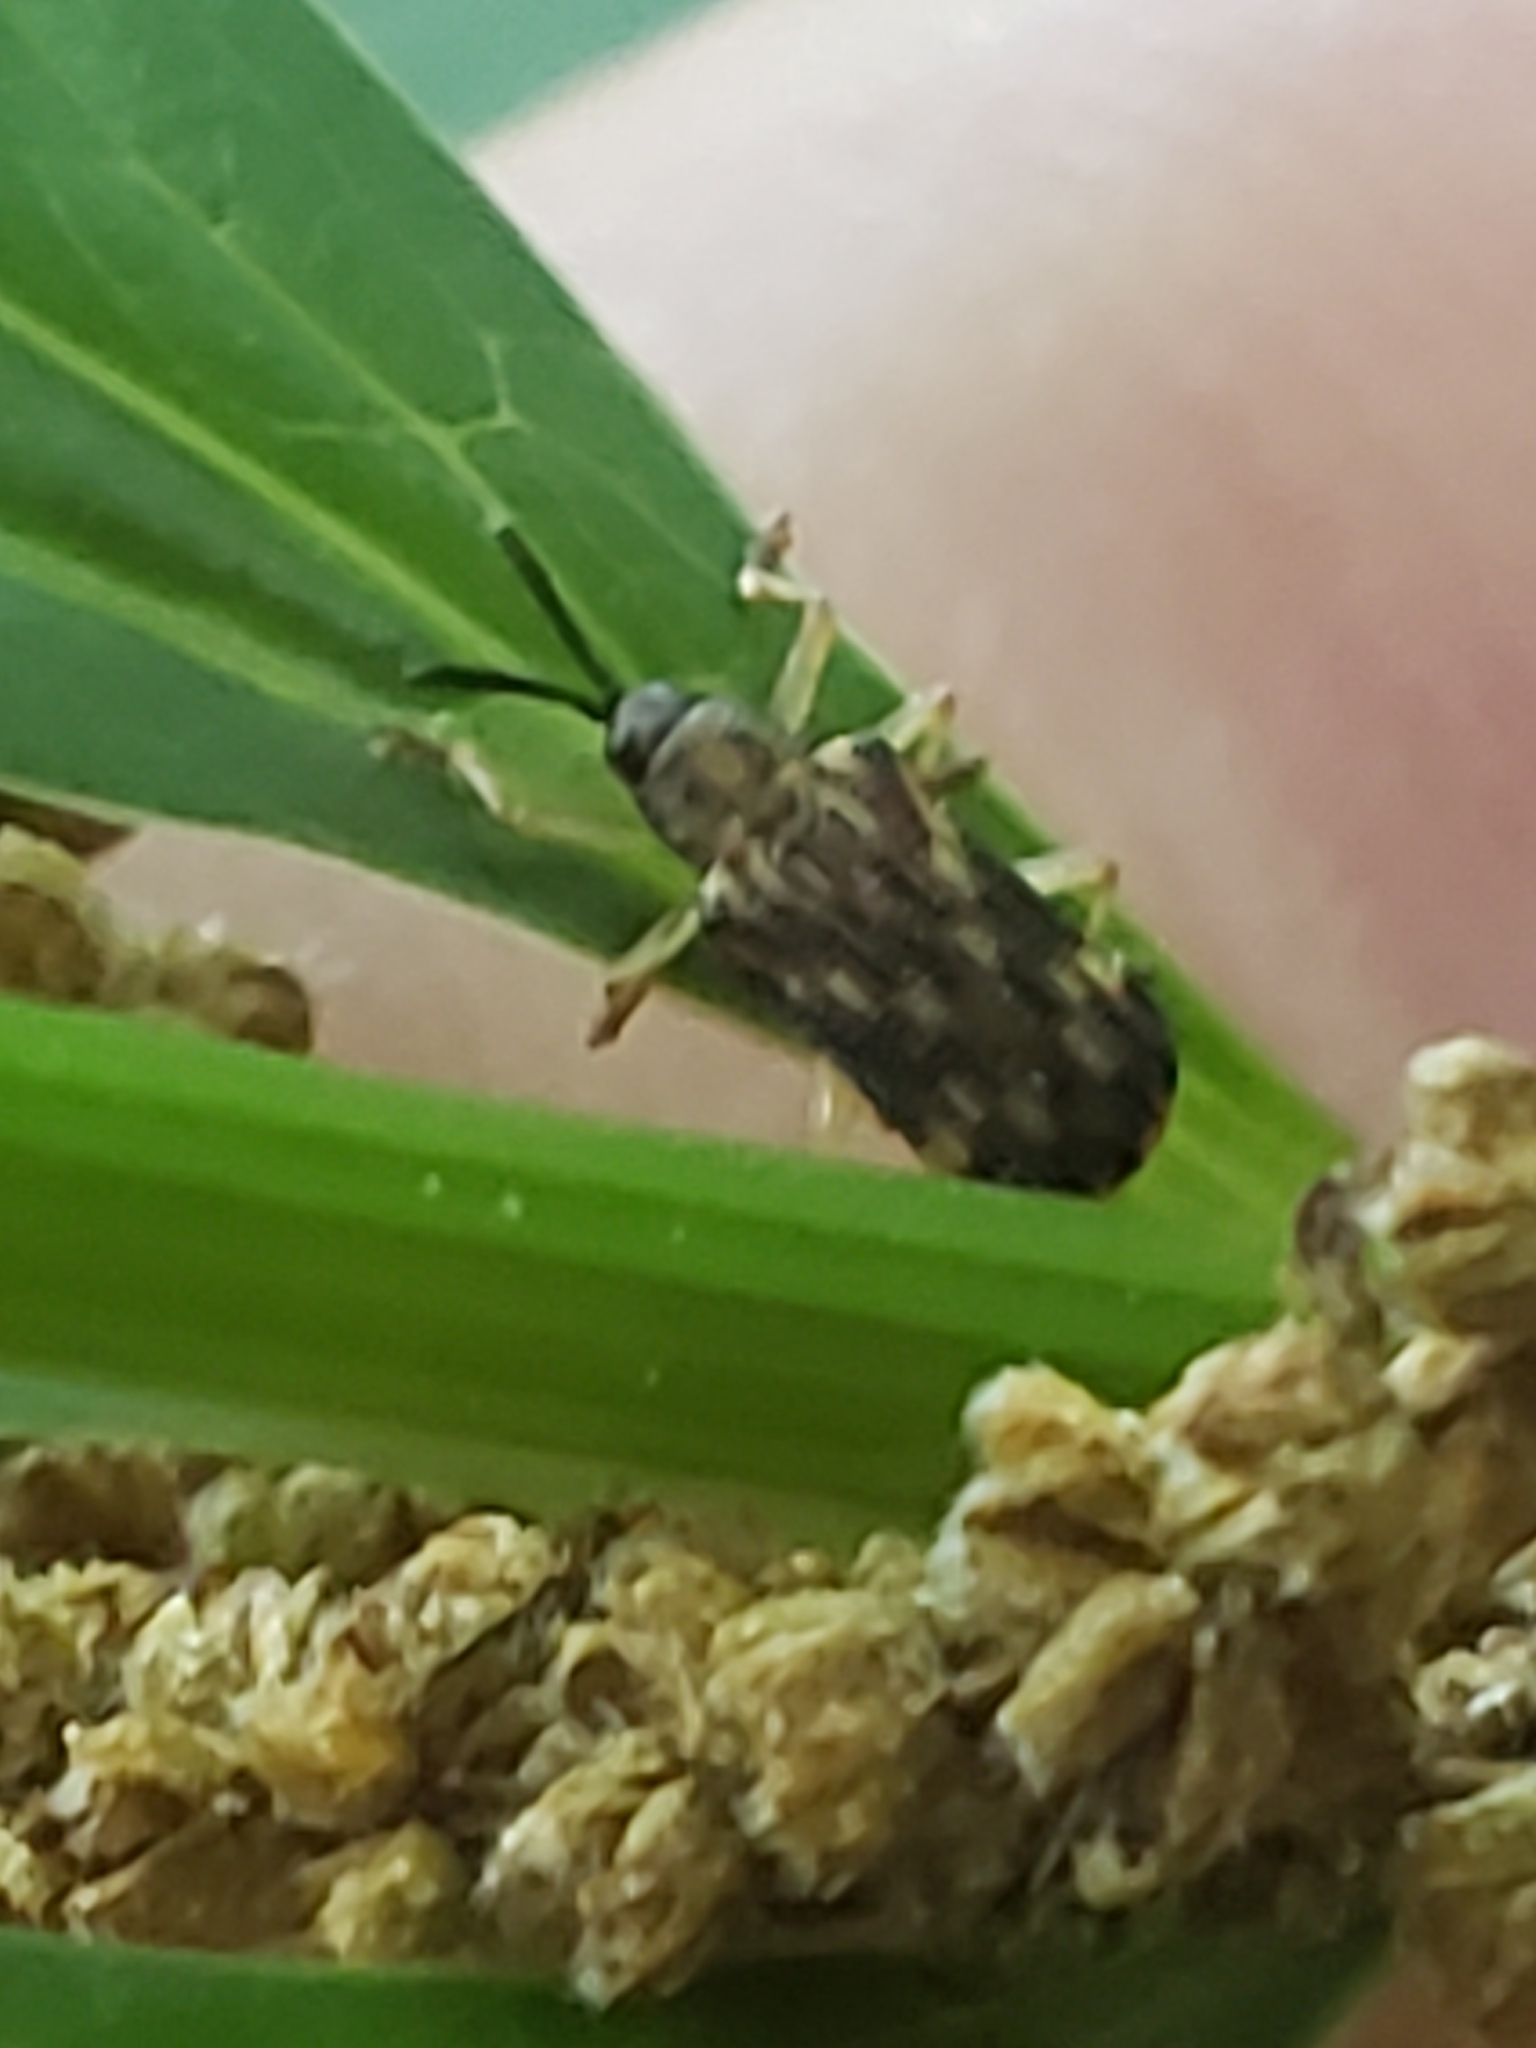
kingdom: Animalia
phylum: Arthropoda
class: Insecta
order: Coleoptera
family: Chrysomelidae
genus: Sumitrosis
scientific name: Sumitrosis inaequalis
